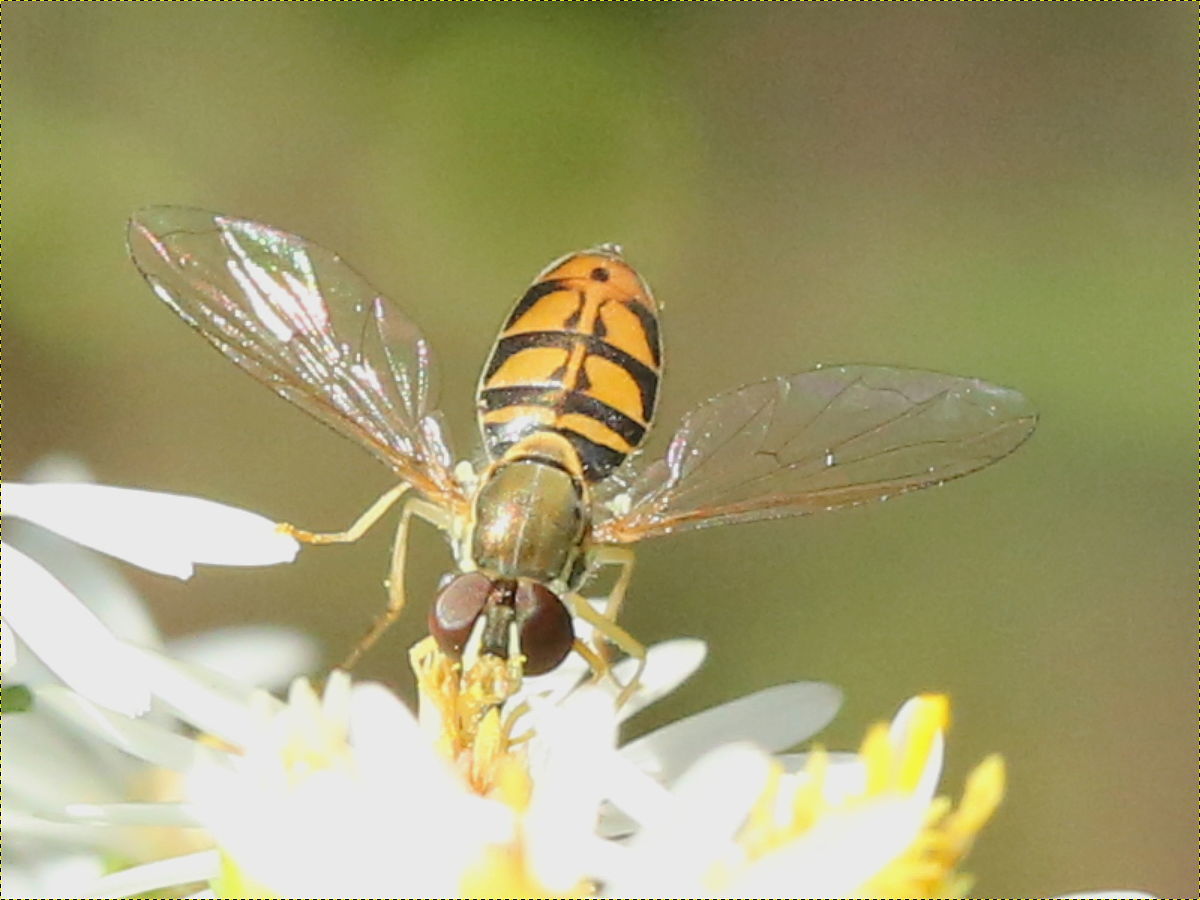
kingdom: Animalia
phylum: Arthropoda
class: Insecta
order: Diptera
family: Syrphidae
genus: Toxomerus
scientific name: Toxomerus marginatus
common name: Syrphid fly
